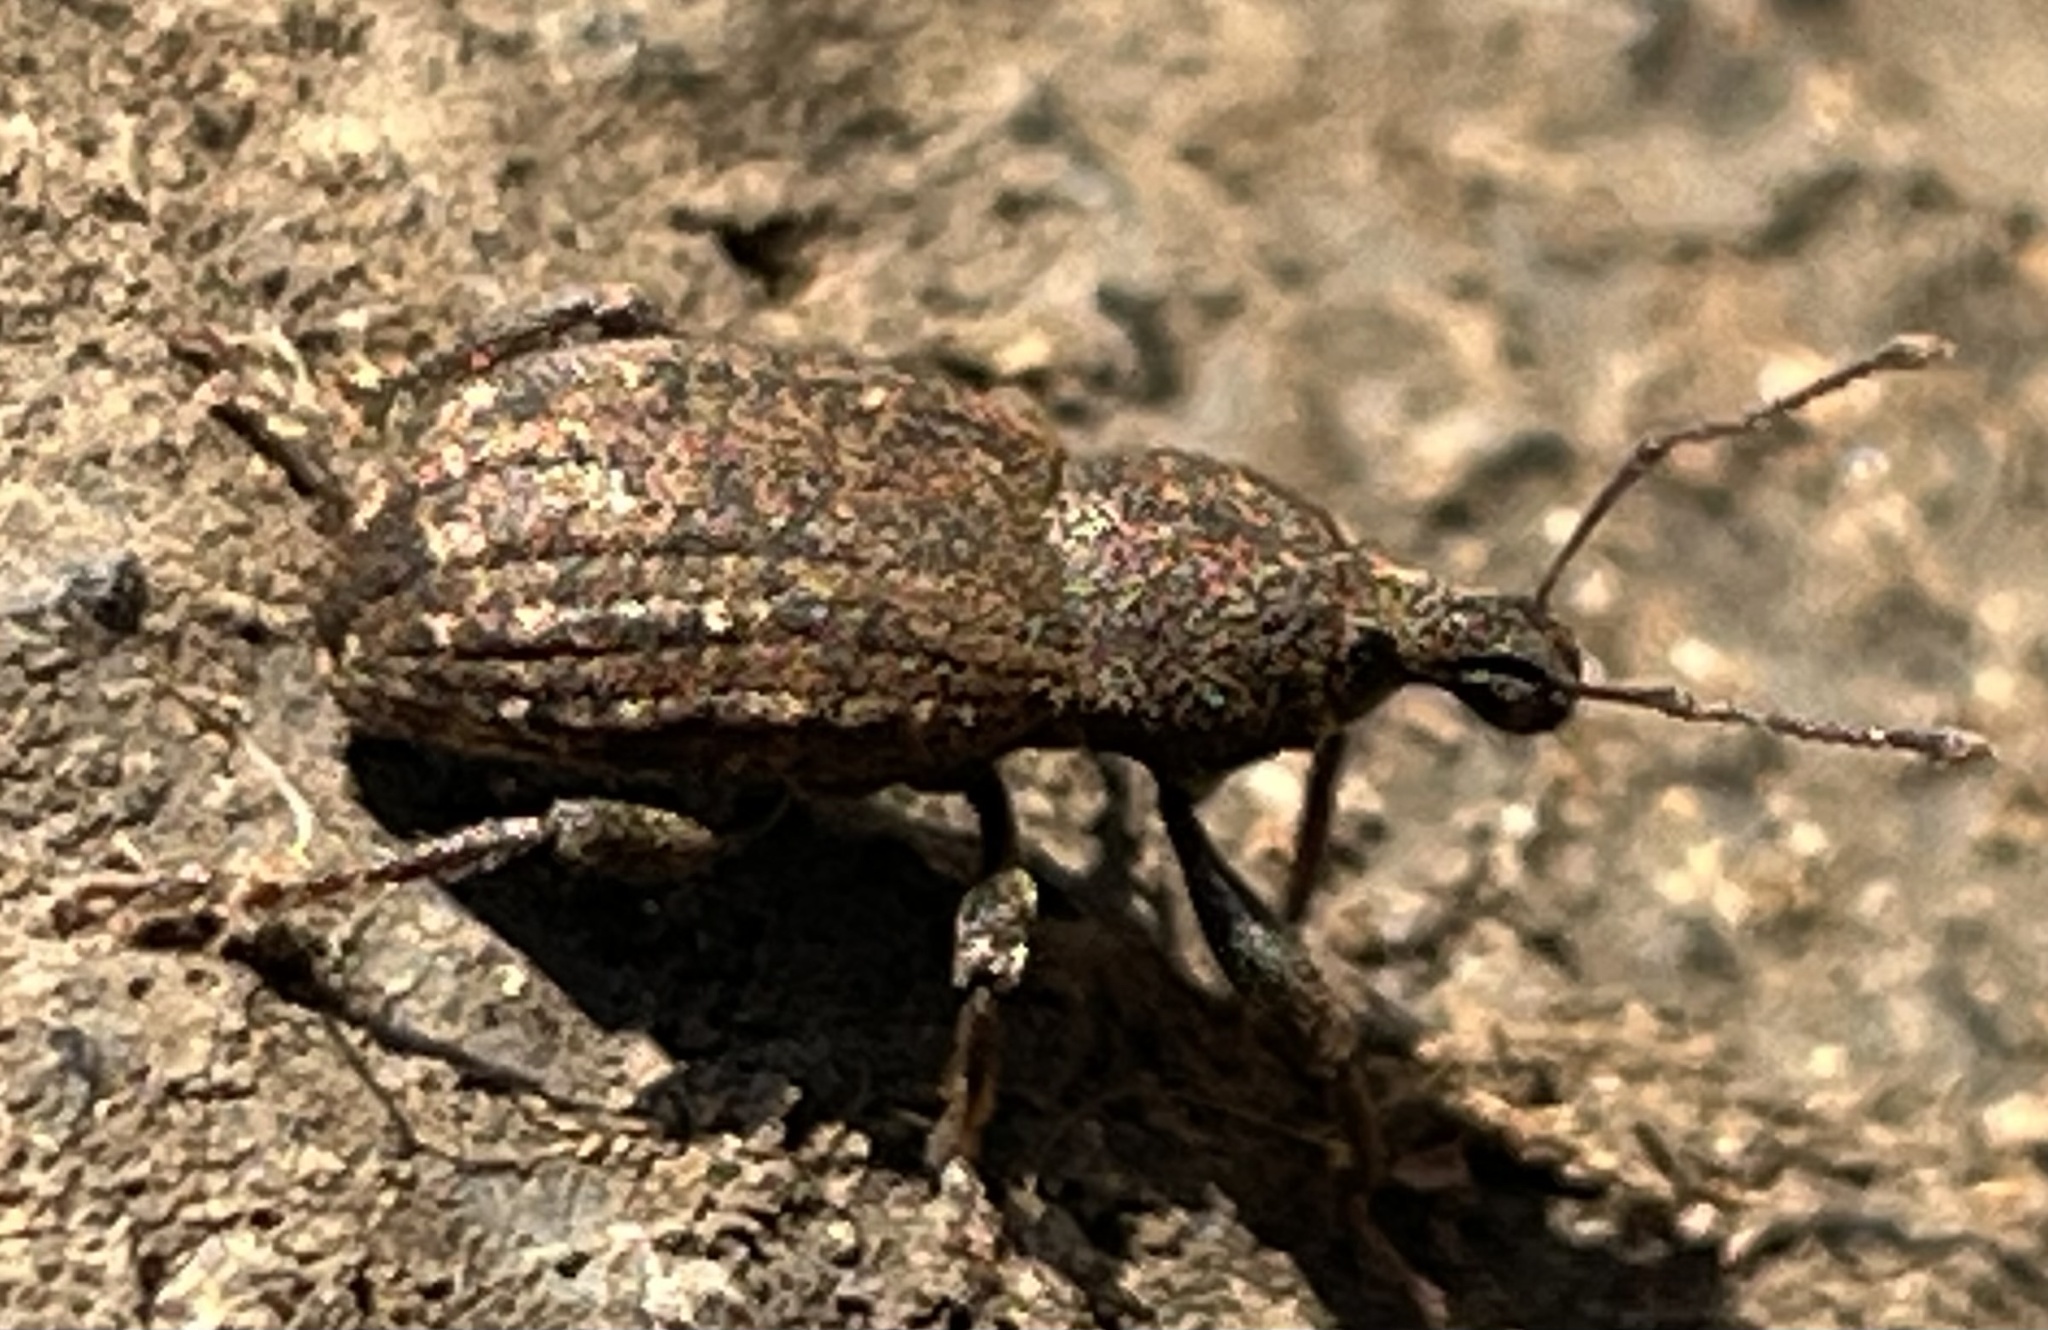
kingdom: Animalia
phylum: Arthropoda
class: Insecta
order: Coleoptera
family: Curculionidae
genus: Dyslobus
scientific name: Dyslobus granicollis
